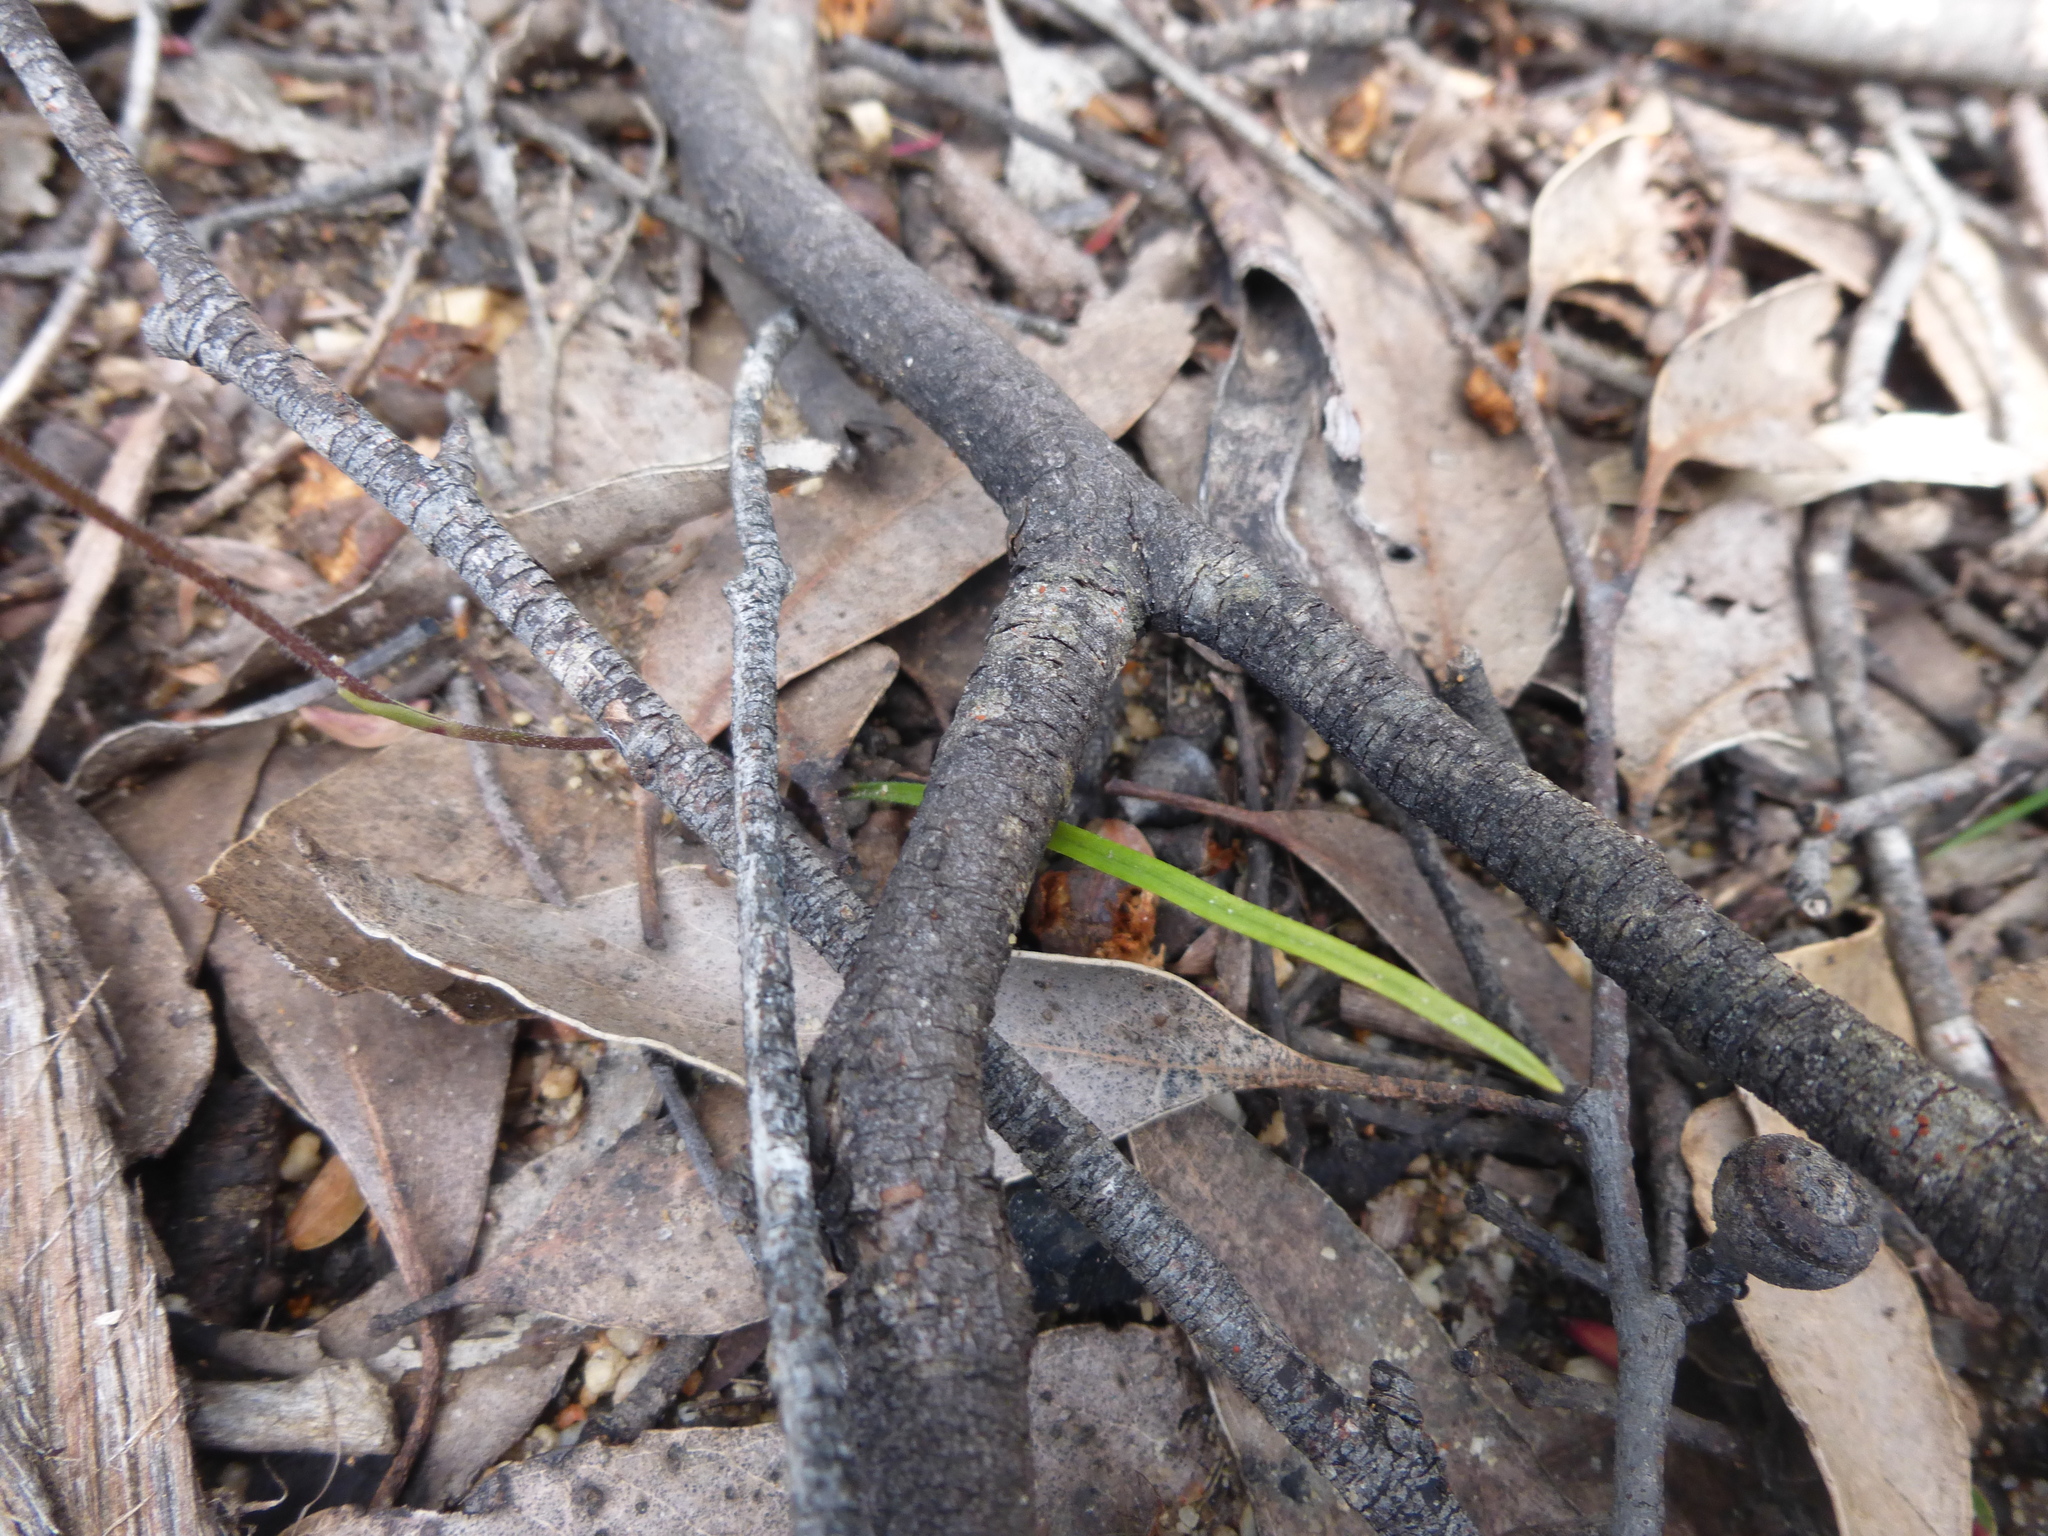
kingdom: Plantae
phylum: Tracheophyta
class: Liliopsida
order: Asparagales
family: Orchidaceae
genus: Caladenia
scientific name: Caladenia carnea
